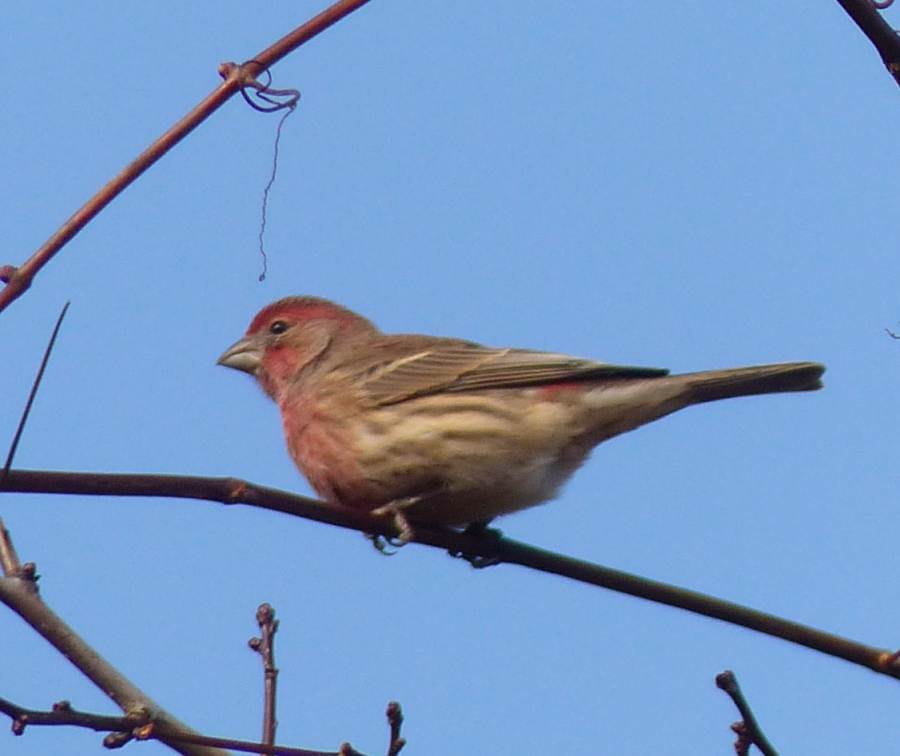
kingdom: Animalia
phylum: Chordata
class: Aves
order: Passeriformes
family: Fringillidae
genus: Haemorhous
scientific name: Haemorhous mexicanus
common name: House finch
